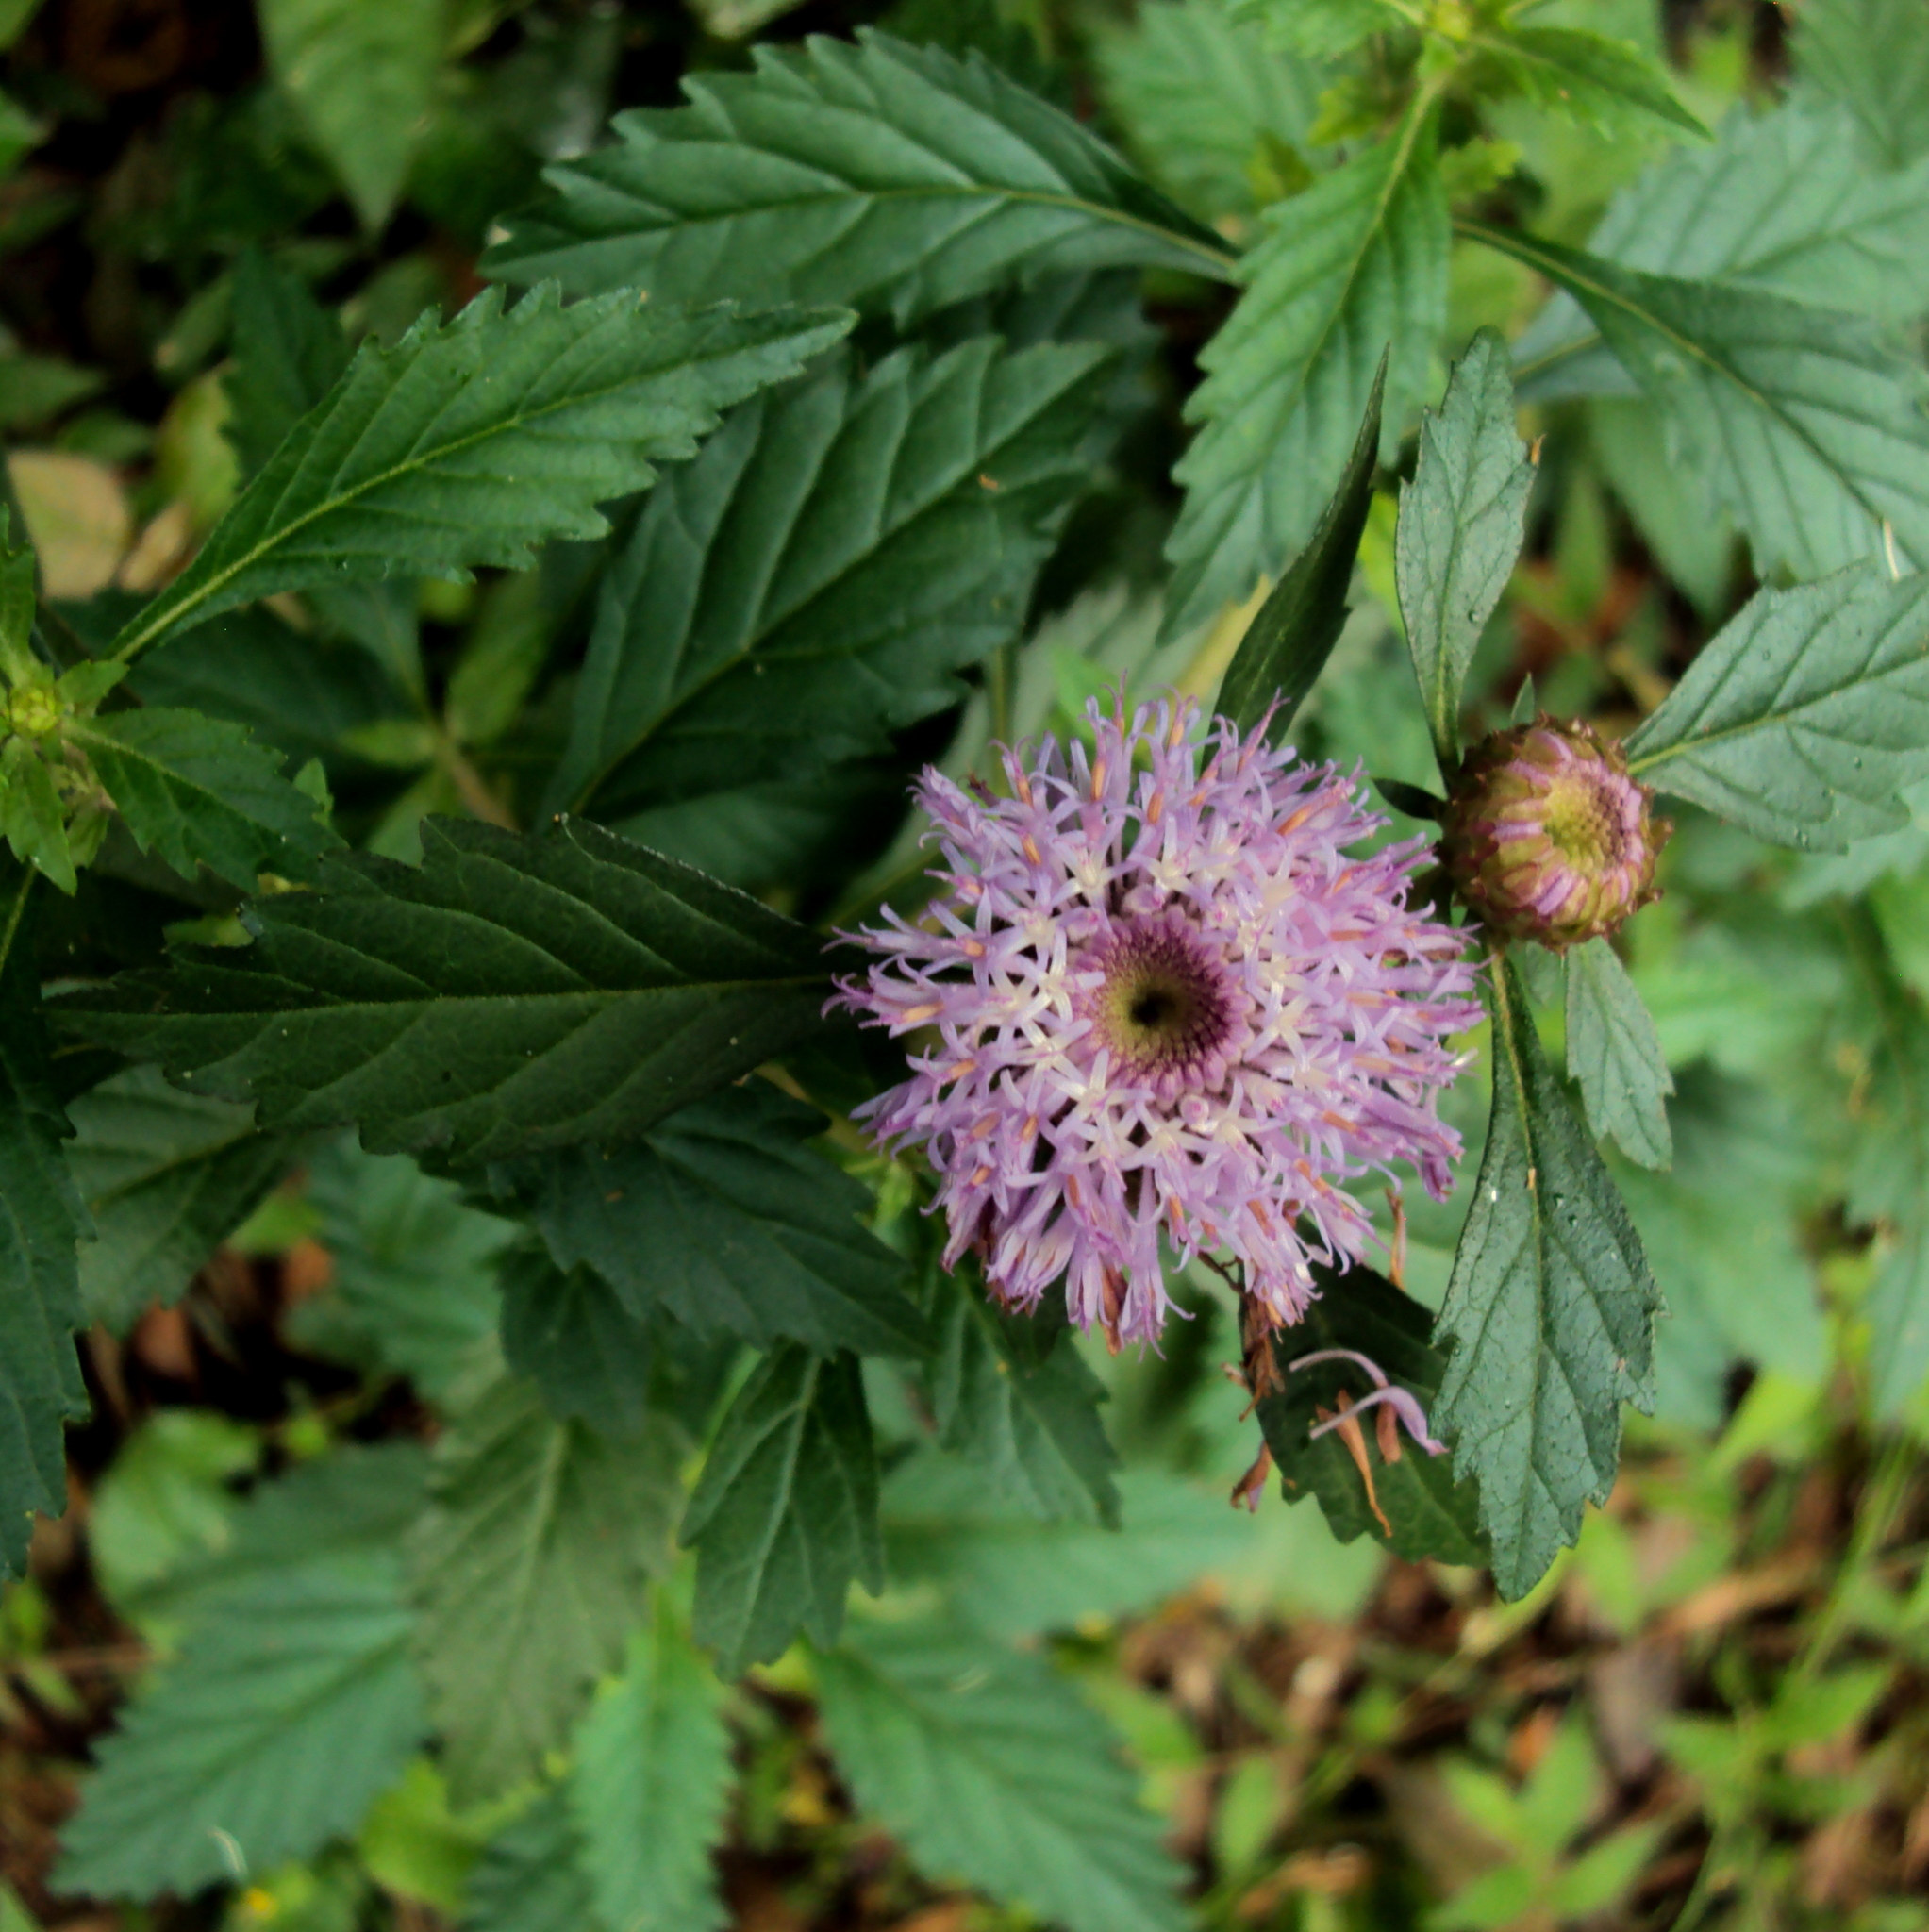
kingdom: Plantae
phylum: Tracheophyta
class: Magnoliopsida
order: Asterales
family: Asteraceae
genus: Centratherum
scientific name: Centratherum punctatum
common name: Larkdaisy
